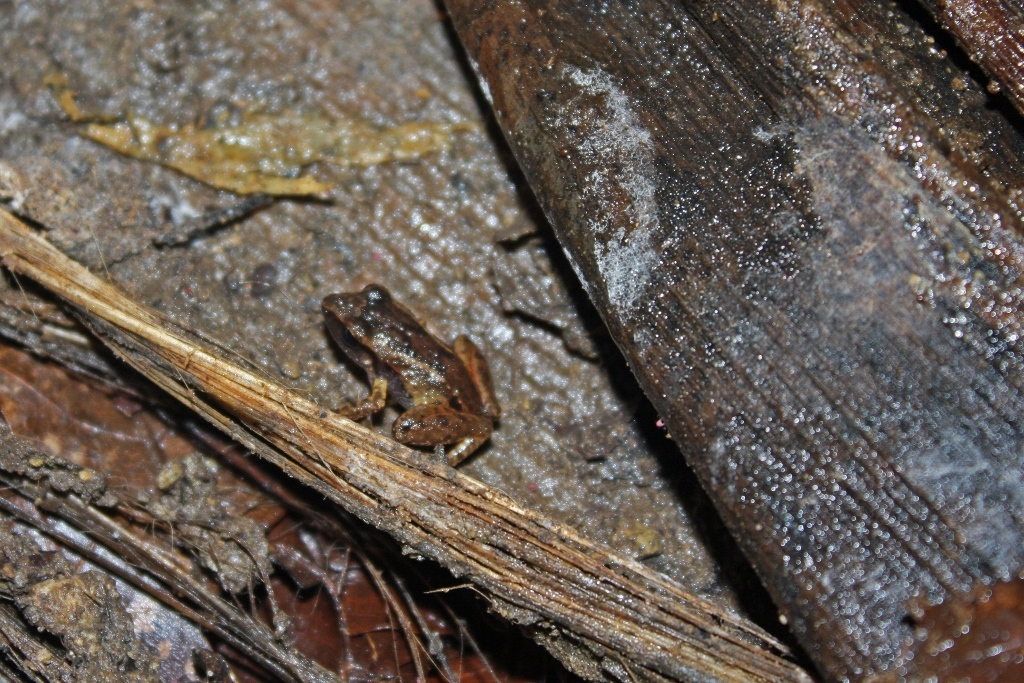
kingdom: Animalia
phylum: Chordata
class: Amphibia
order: Anura
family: Eleutherodactylidae
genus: Eleutherodactylus
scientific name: Eleutherodactylus atkinsi
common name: Cuban groin-spotted frog
